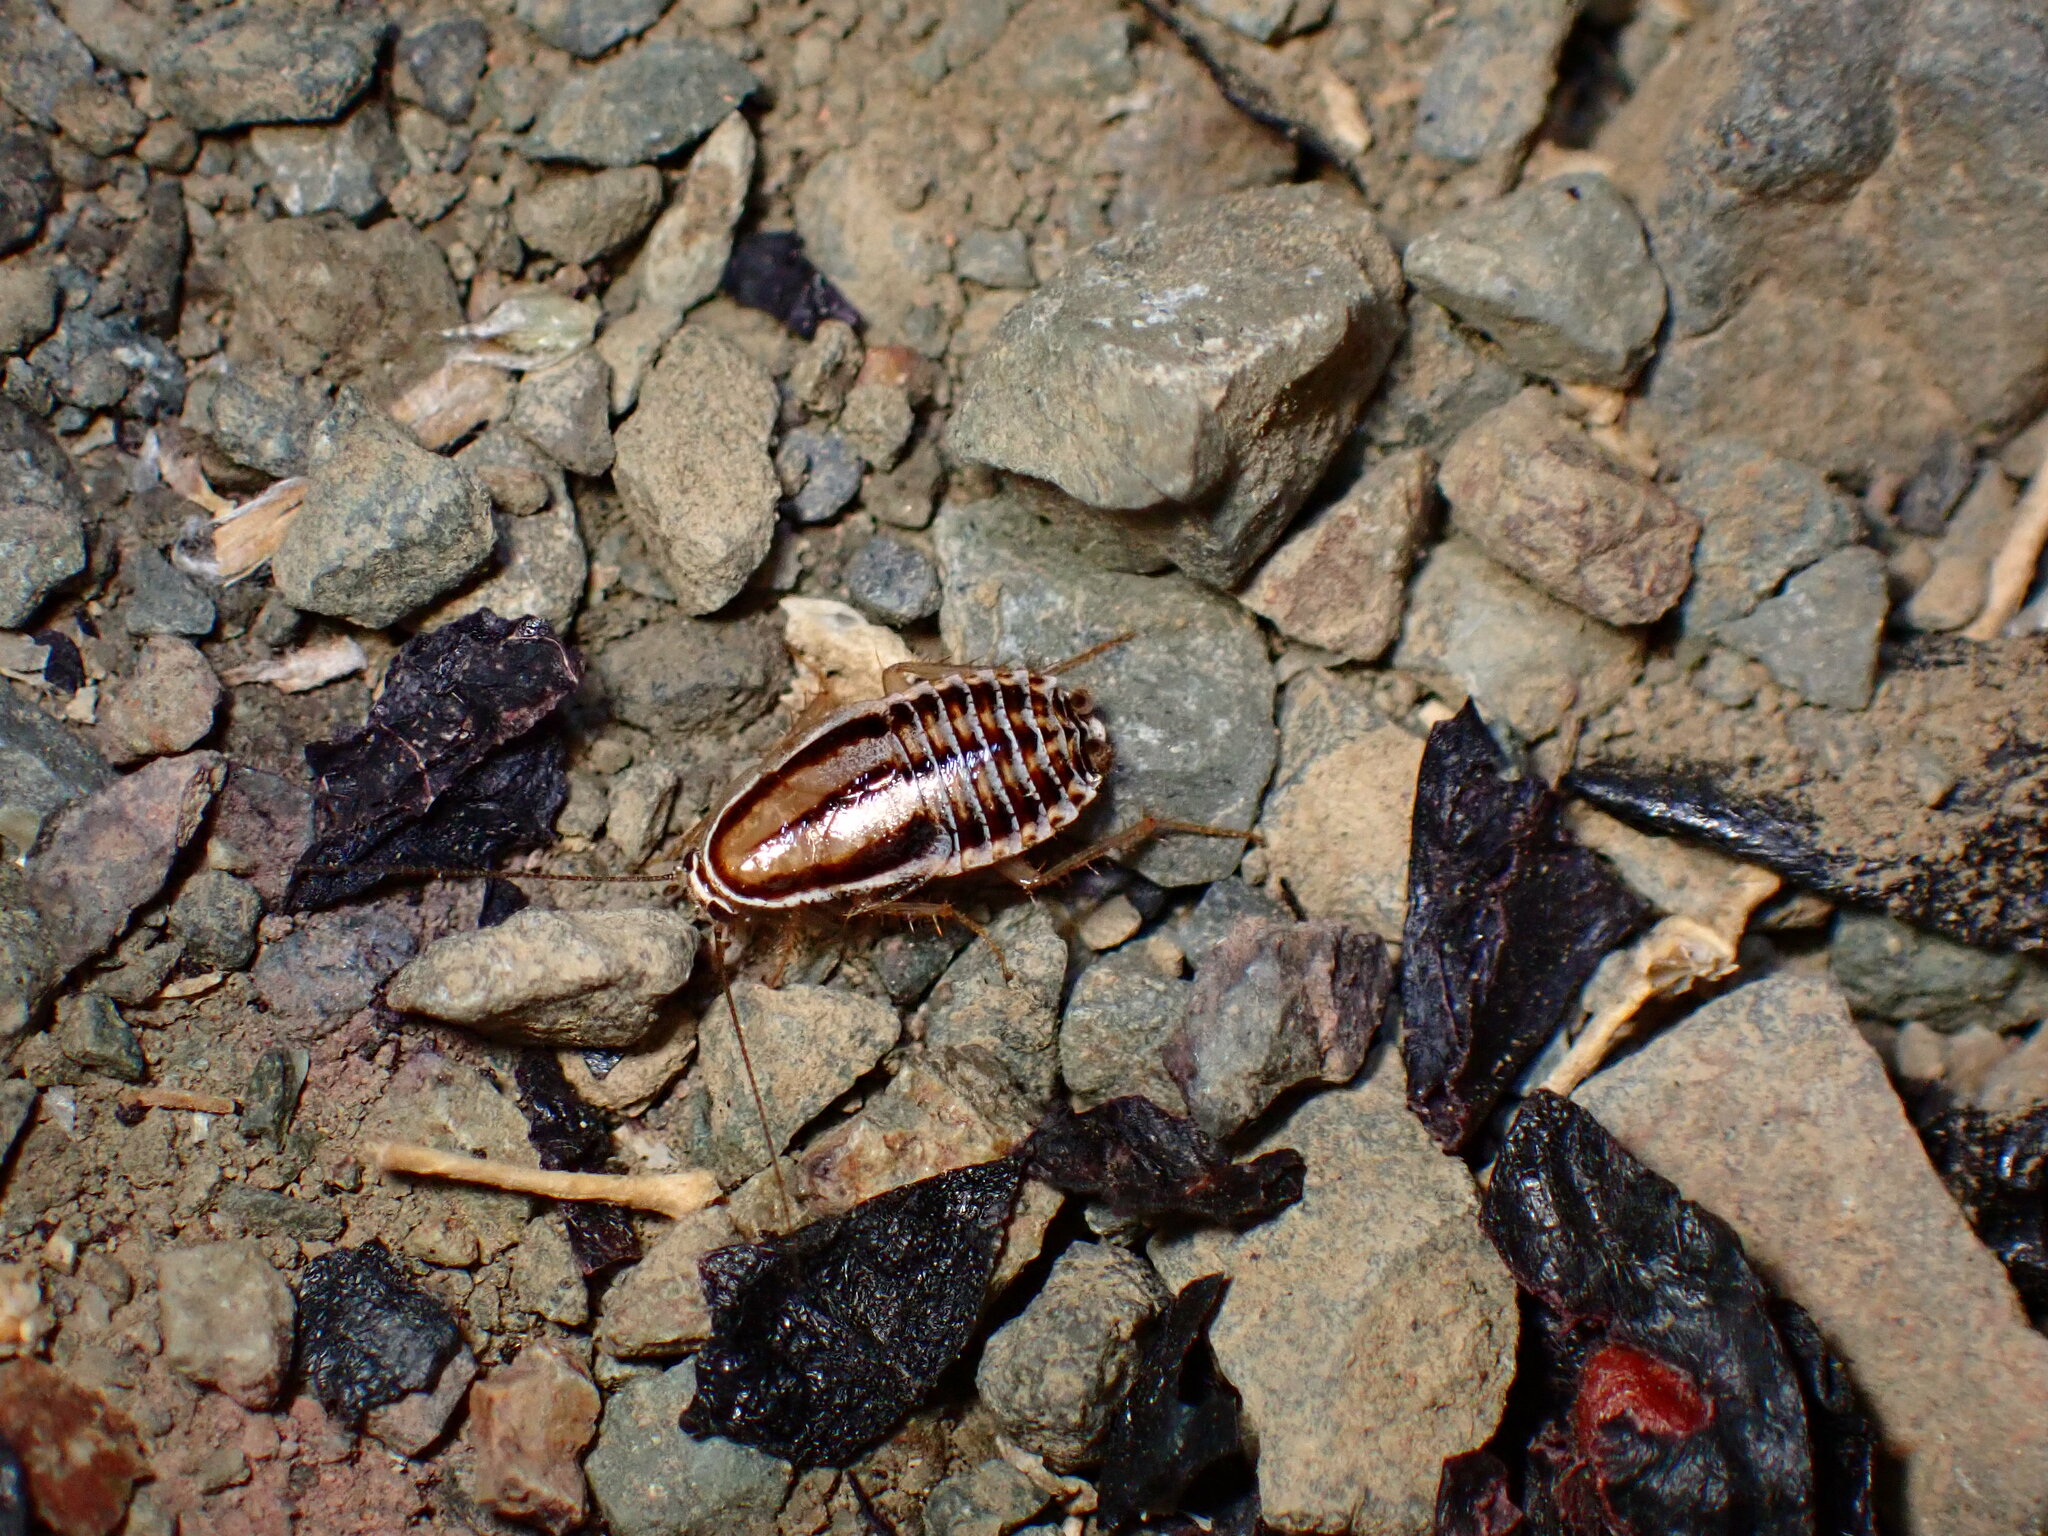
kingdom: Animalia
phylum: Arthropoda
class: Insecta
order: Blattodea
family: Ectobiidae
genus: Luridiblatta
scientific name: Luridiblatta trivittata
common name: Three-lined cockroach
